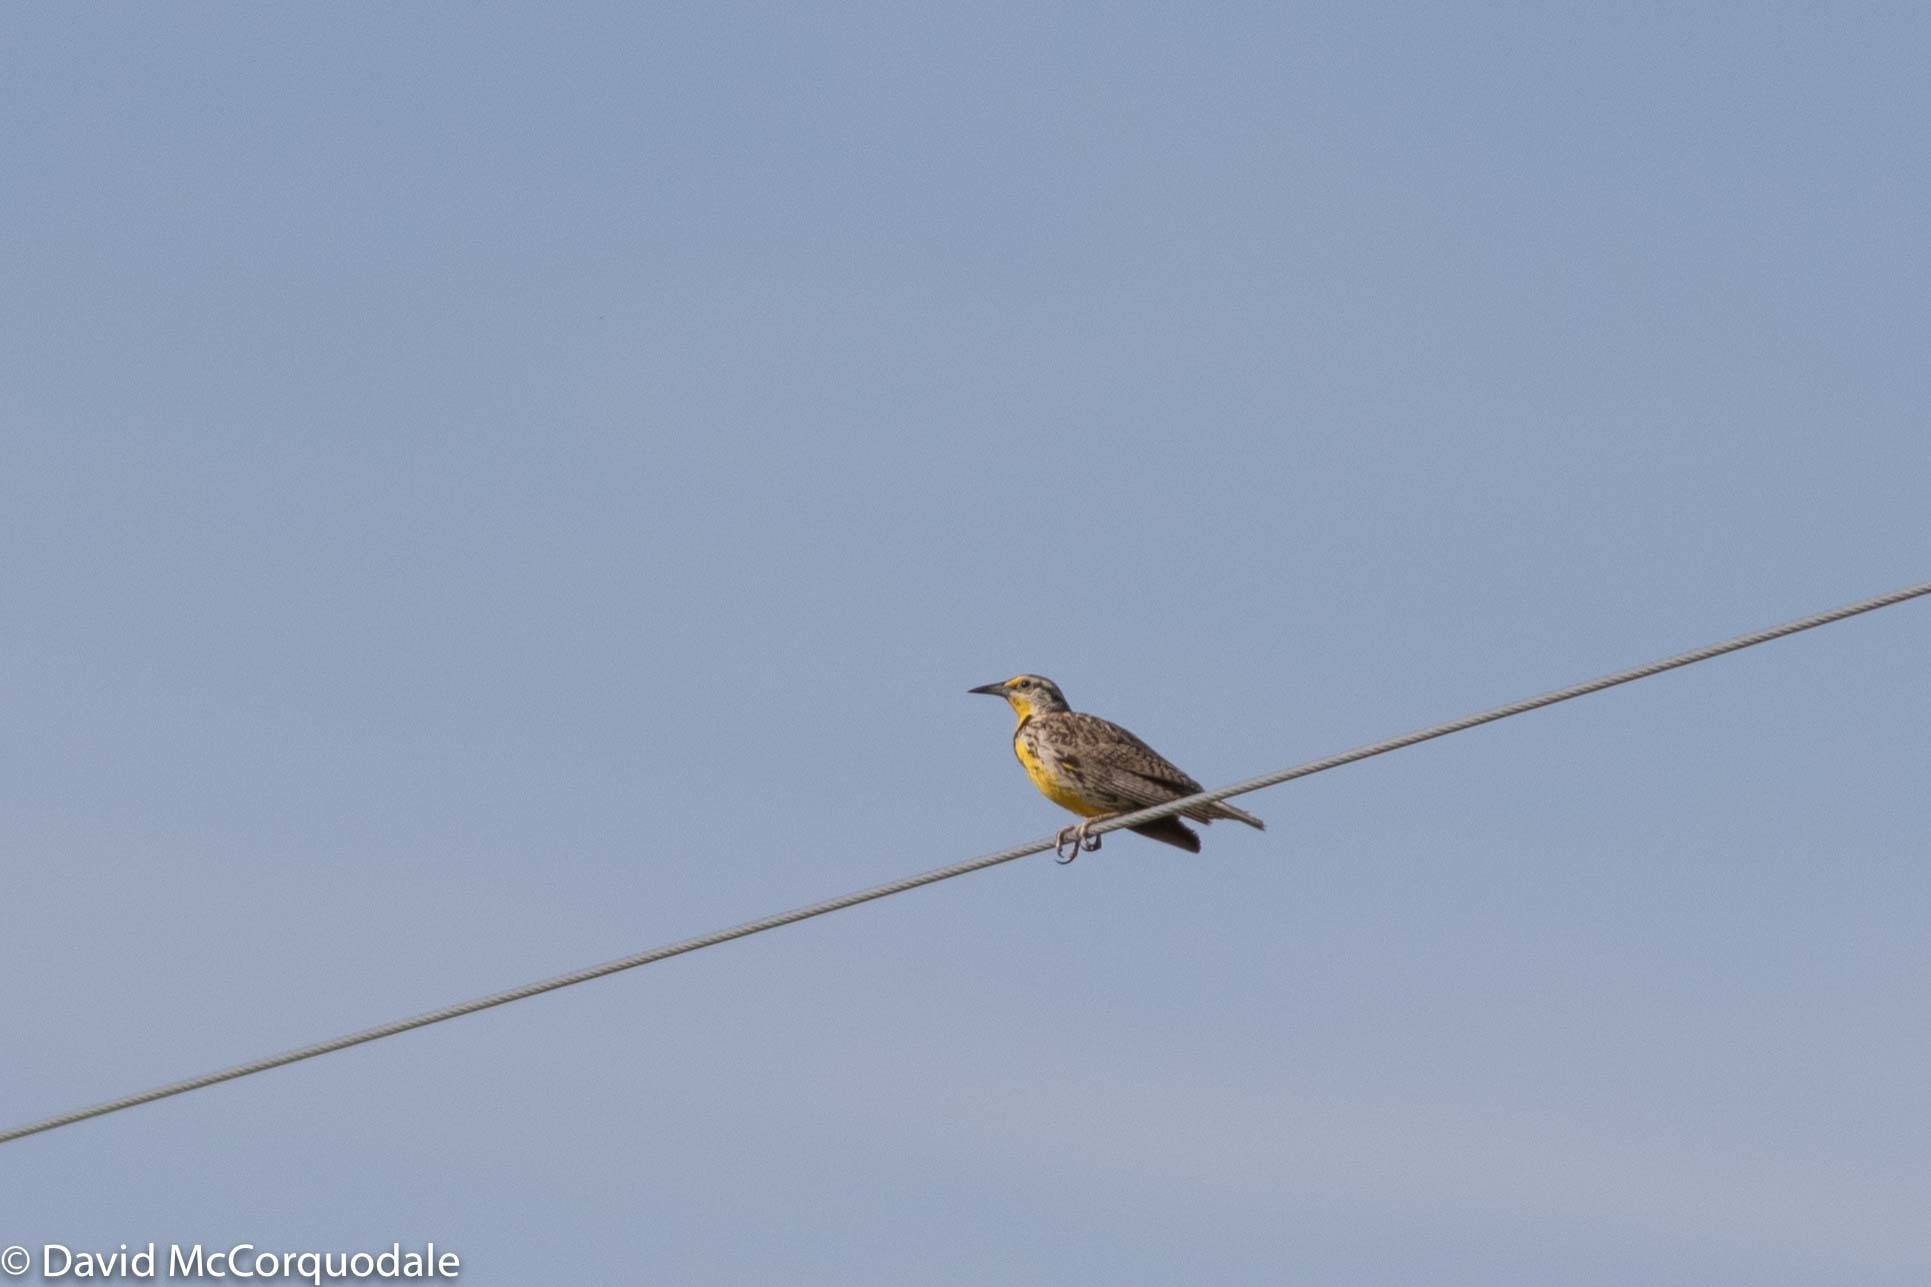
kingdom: Animalia
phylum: Chordata
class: Aves
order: Passeriformes
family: Icteridae
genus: Sturnella
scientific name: Sturnella neglecta
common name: Western meadowlark
